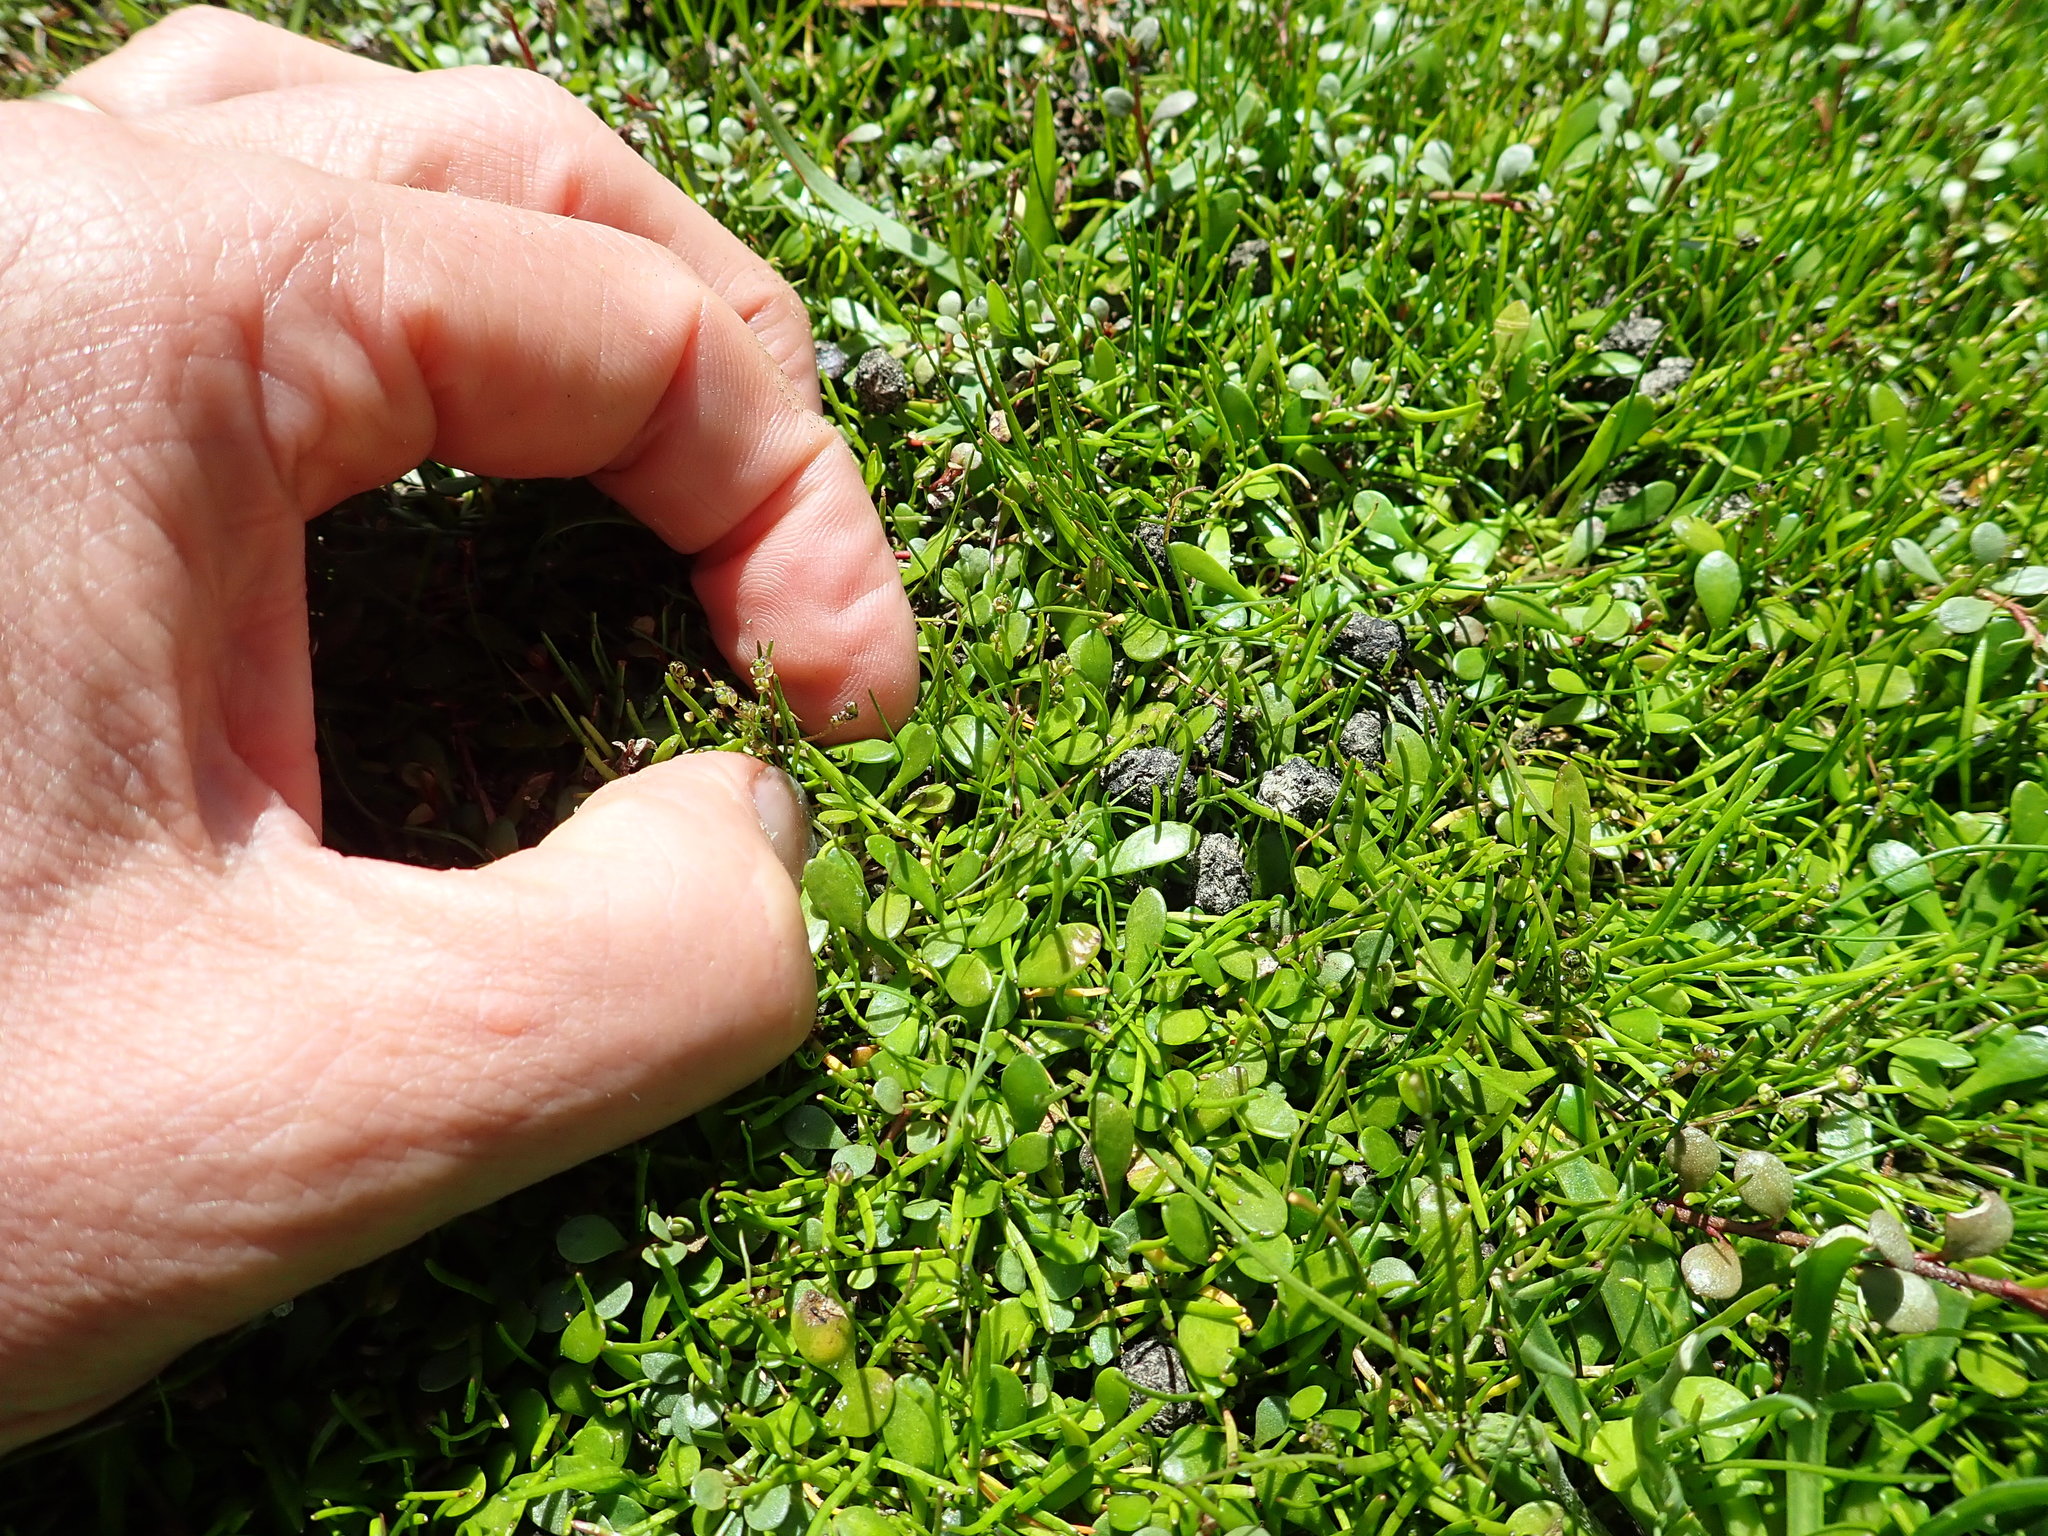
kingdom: Plantae
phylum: Tracheophyta
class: Liliopsida
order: Alismatales
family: Juncaginaceae
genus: Triglochin
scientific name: Triglochin striata
